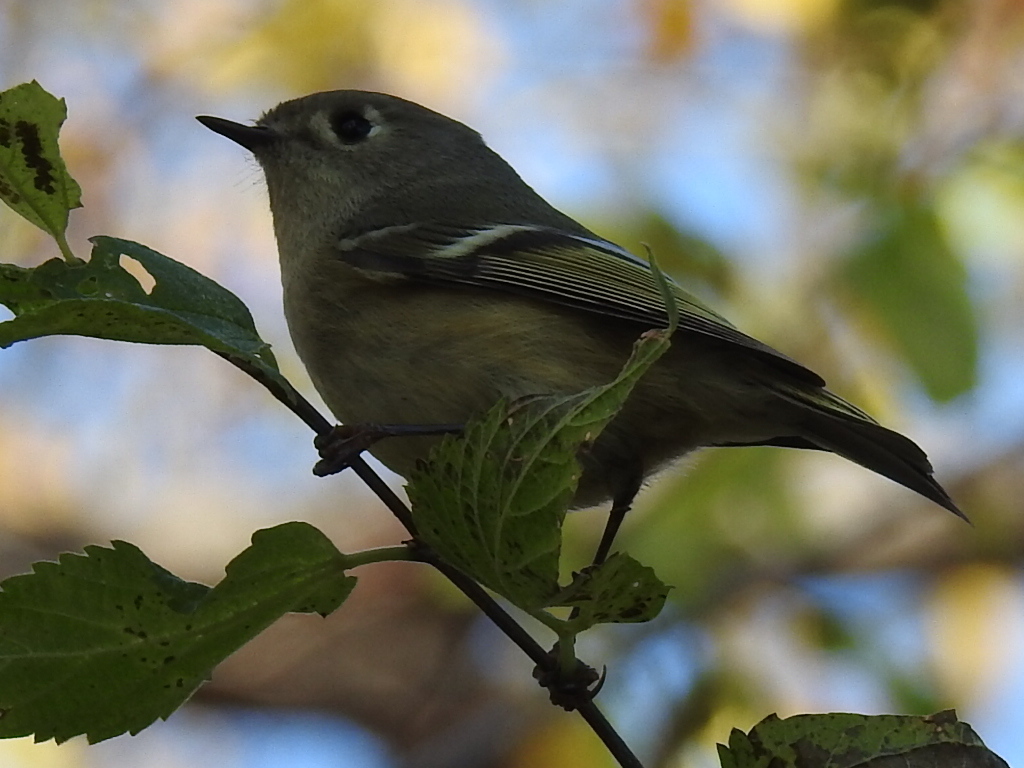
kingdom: Animalia
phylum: Chordata
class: Aves
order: Passeriformes
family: Regulidae
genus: Regulus
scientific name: Regulus calendula
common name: Ruby-crowned kinglet
